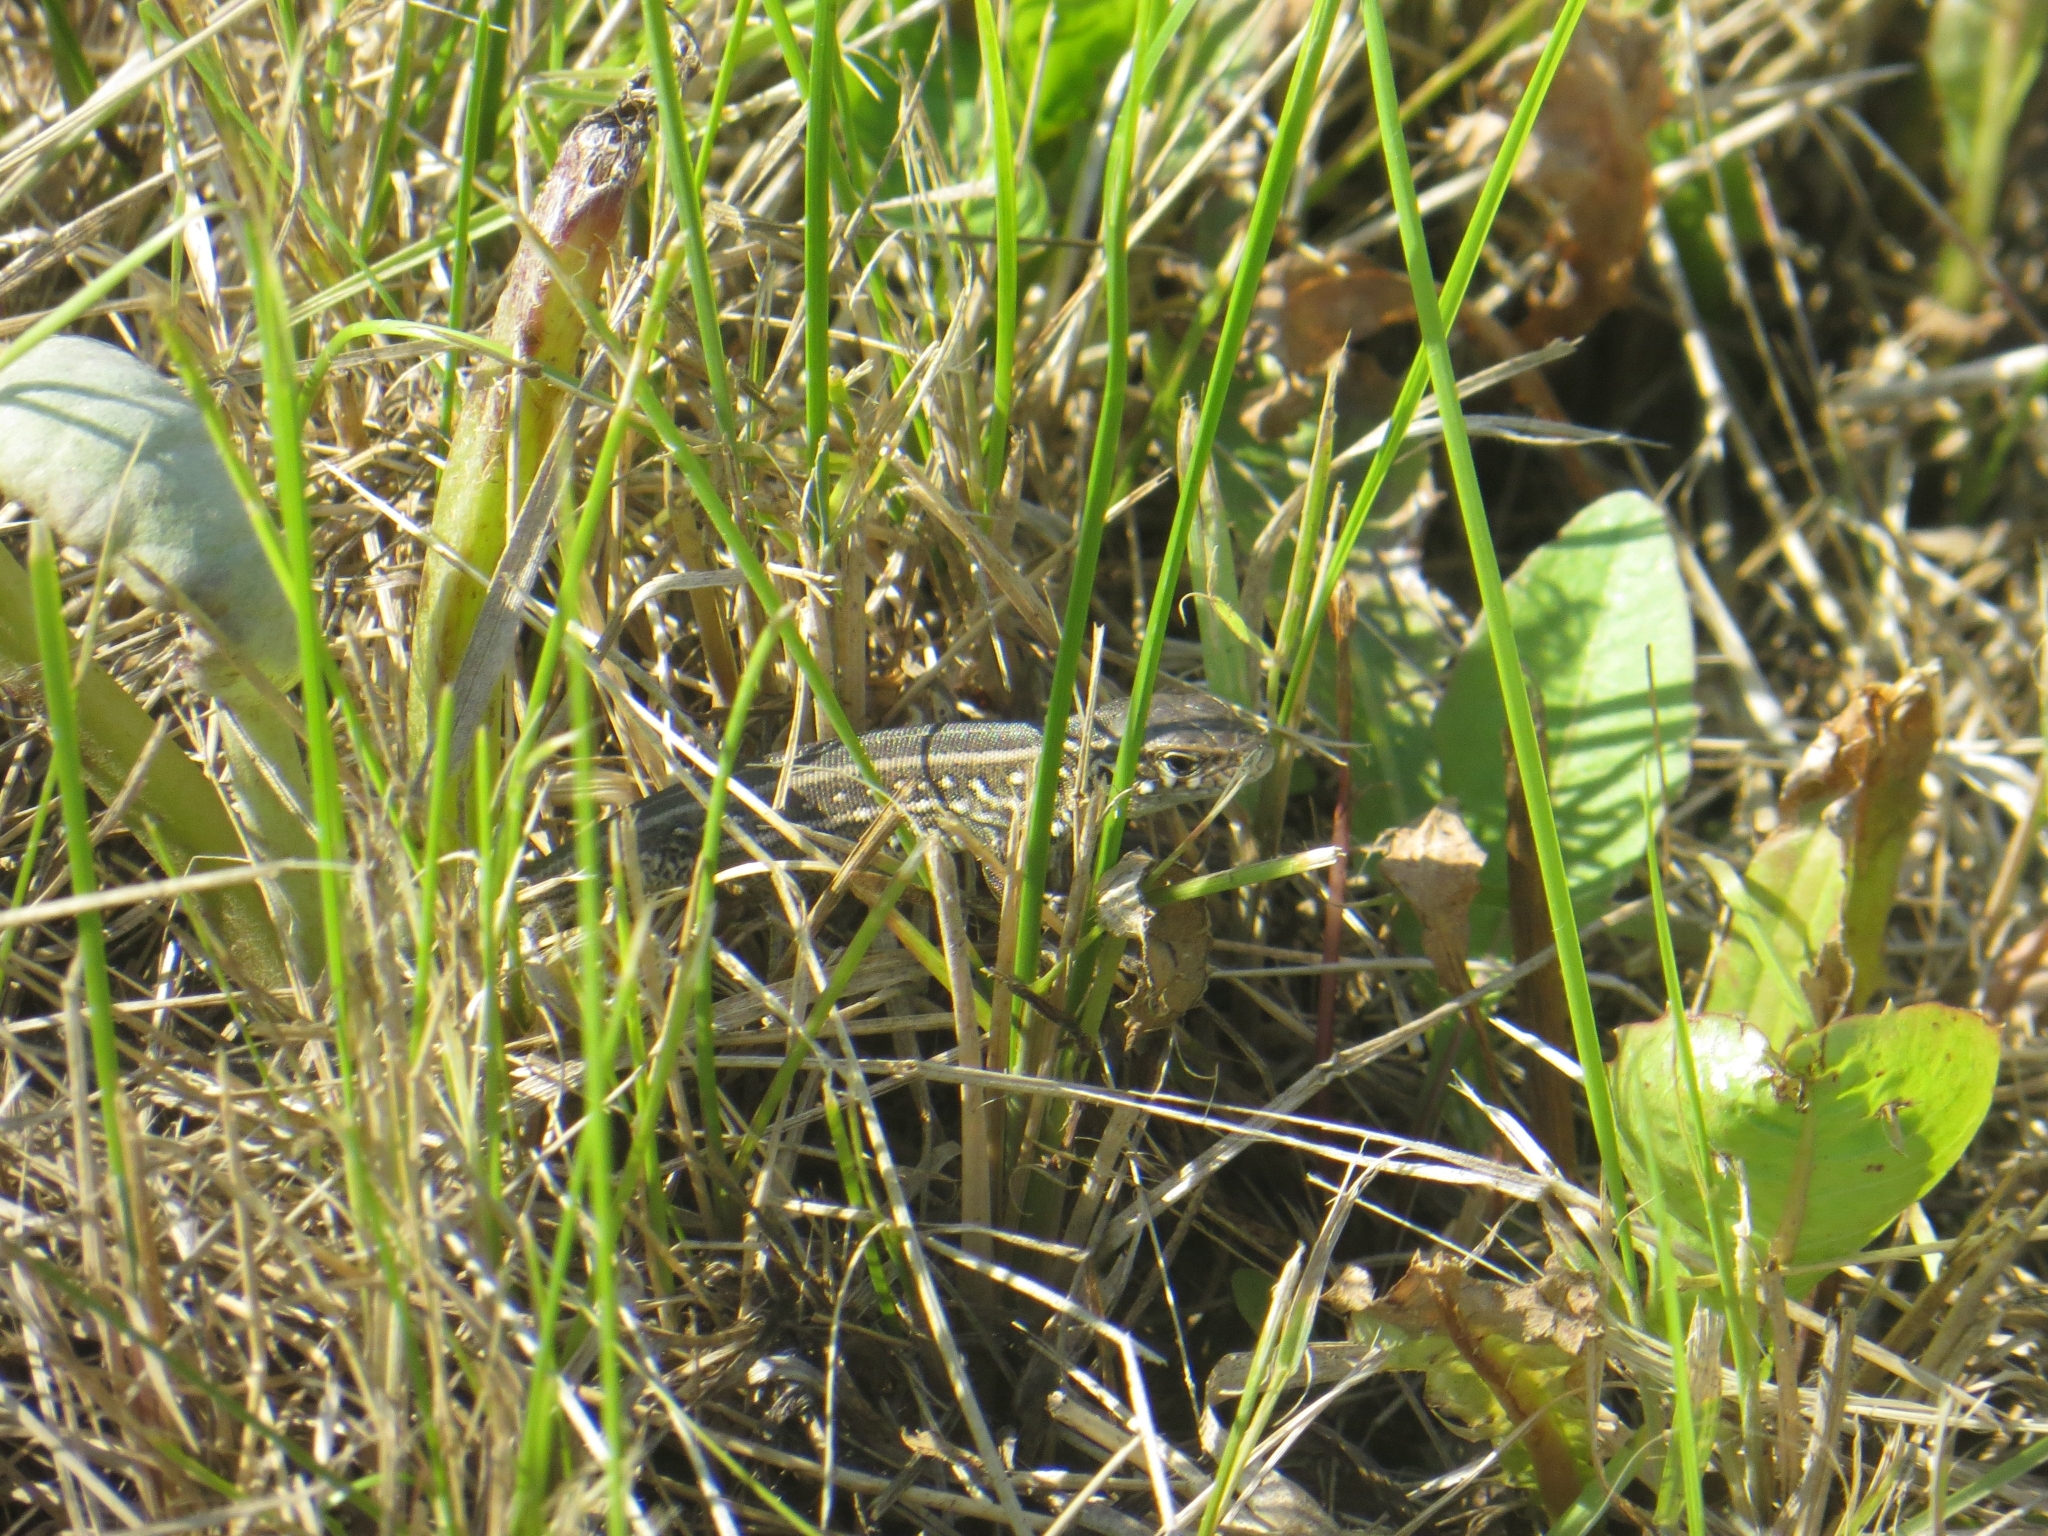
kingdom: Animalia
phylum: Chordata
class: Squamata
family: Lacertidae
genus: Lacerta
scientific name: Lacerta agilis
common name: Sand lizard
